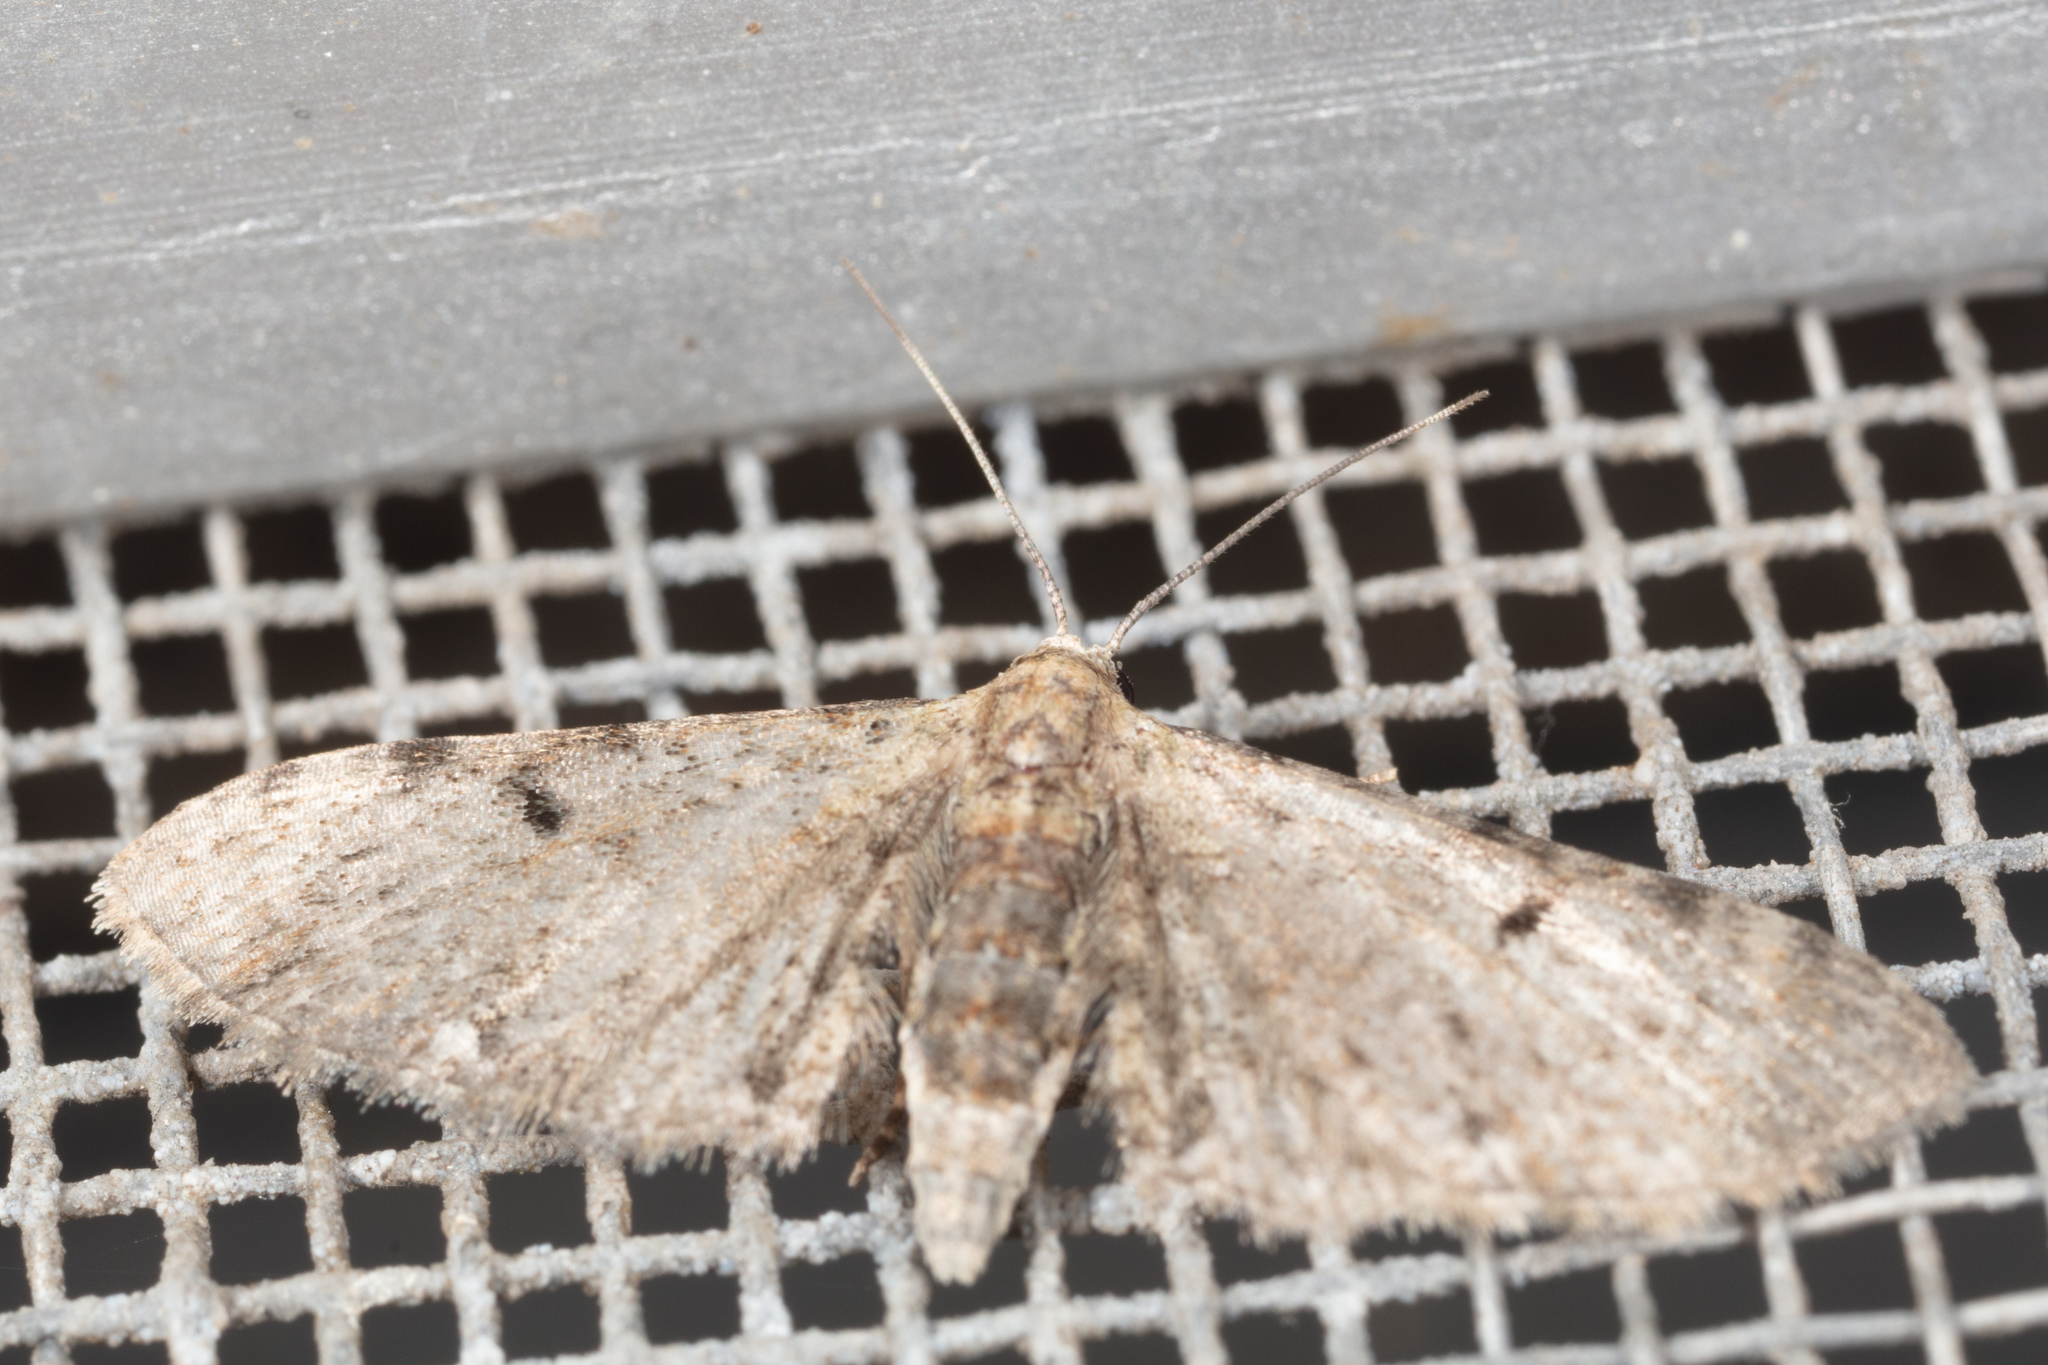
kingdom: Animalia
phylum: Arthropoda
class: Insecta
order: Lepidoptera
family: Geometridae
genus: Eupithecia
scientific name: Eupithecia miserulata
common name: Common eupithecia
